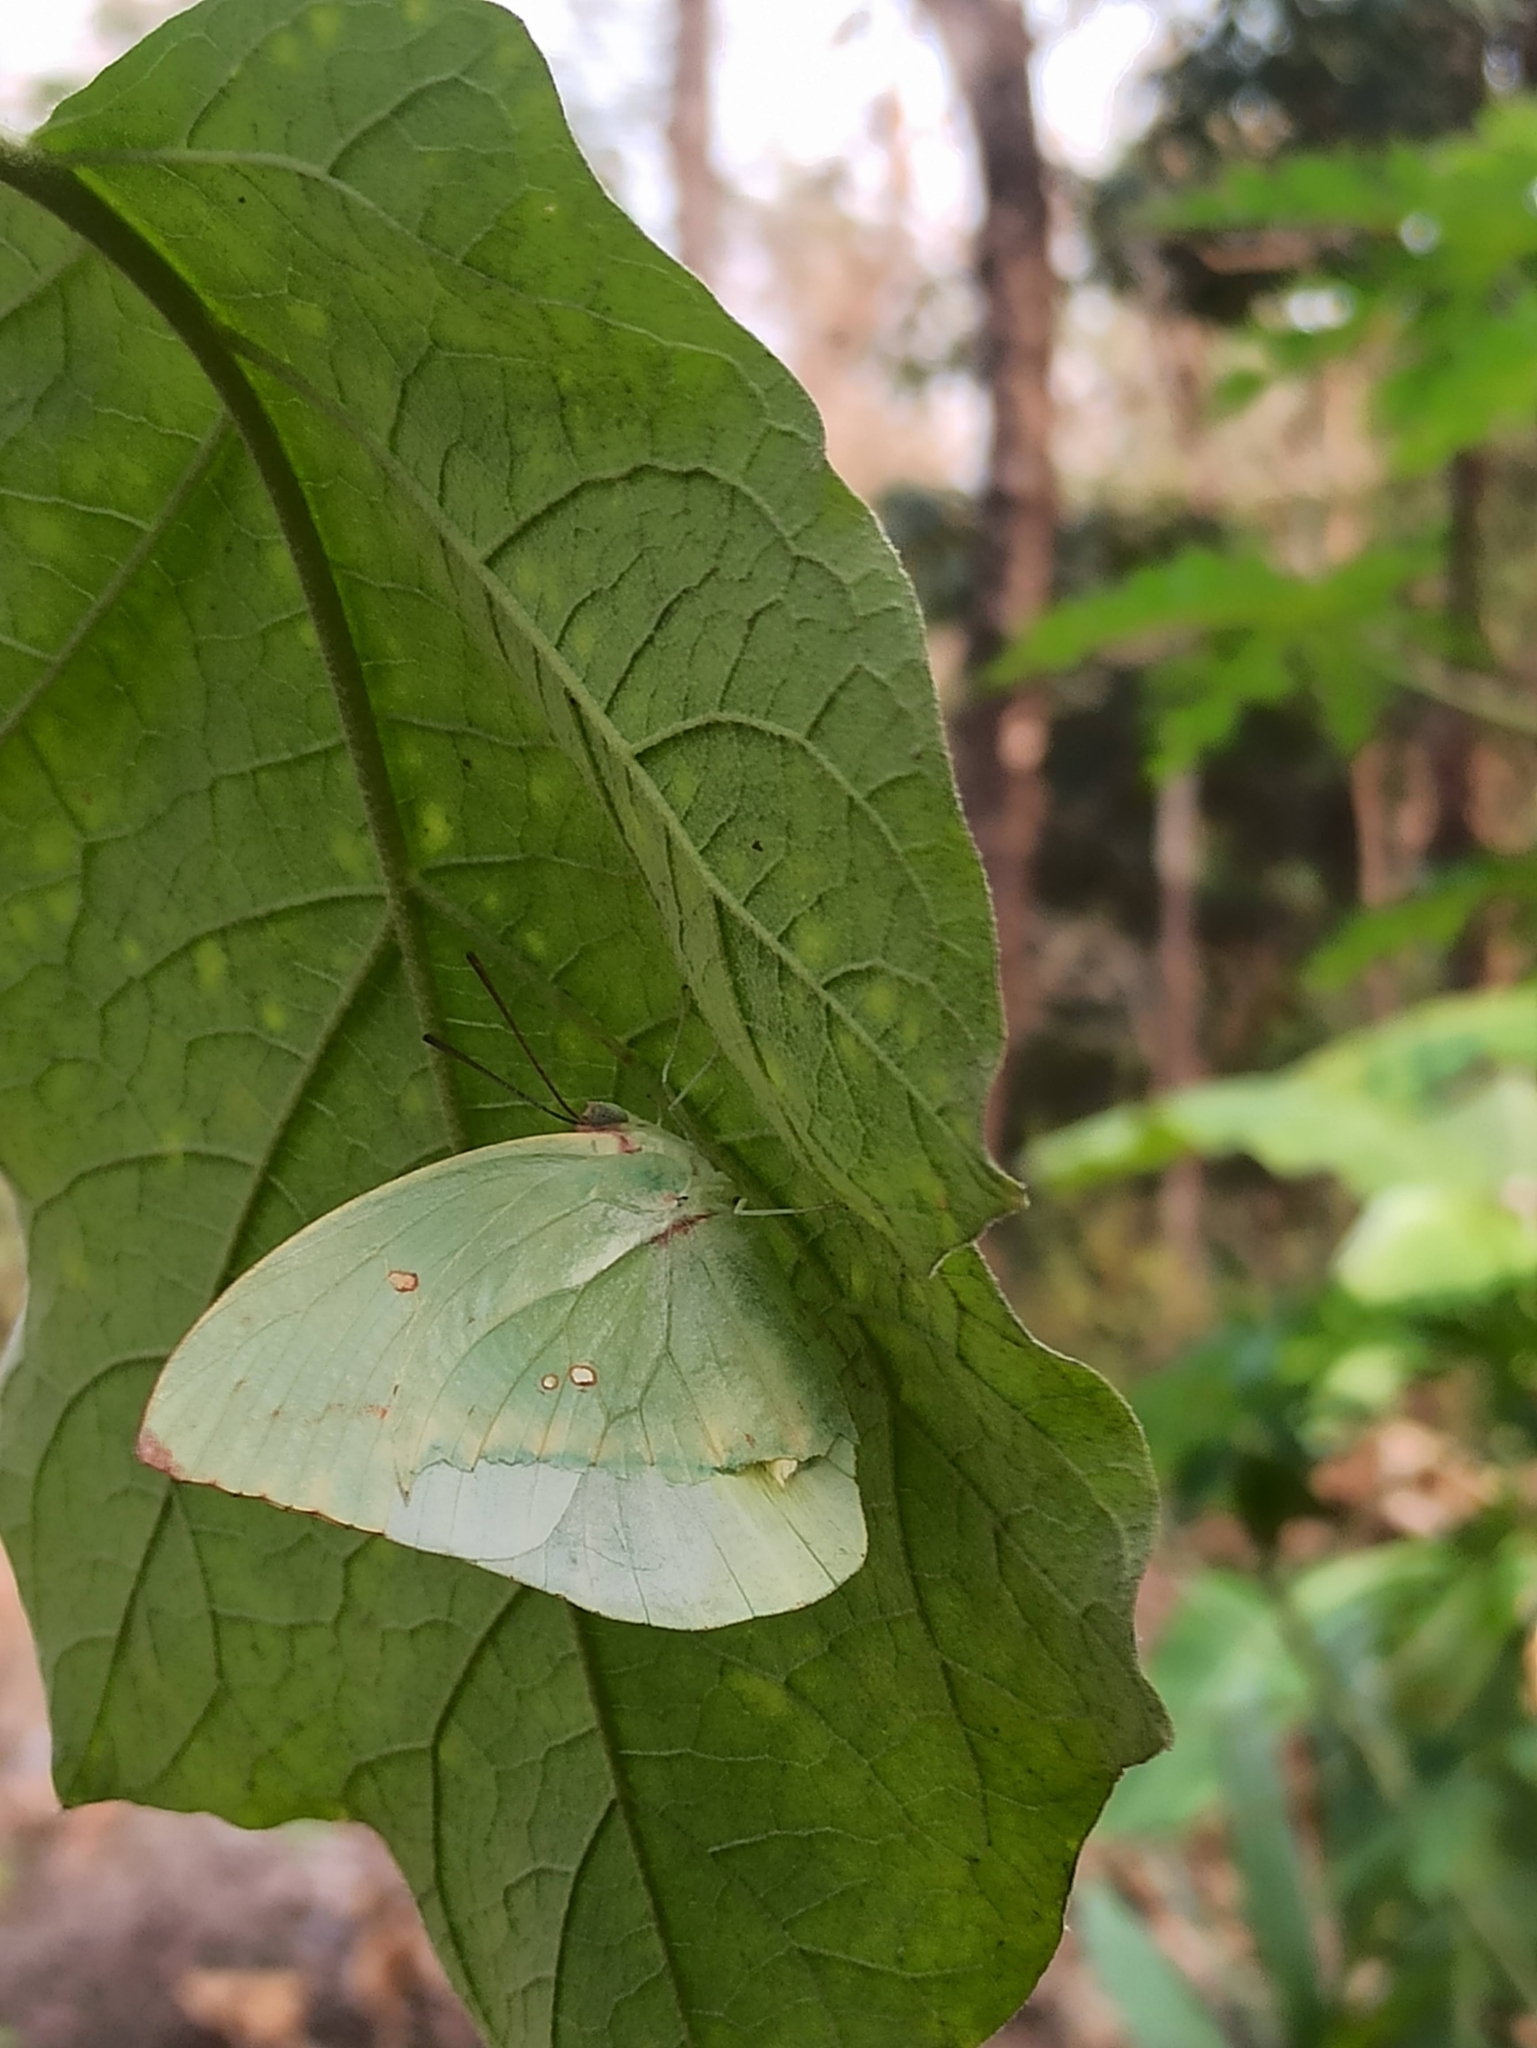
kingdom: Animalia
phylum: Arthropoda
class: Insecta
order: Lepidoptera
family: Pieridae
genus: Catopsilia
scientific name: Catopsilia pomona
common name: Common emigrant
